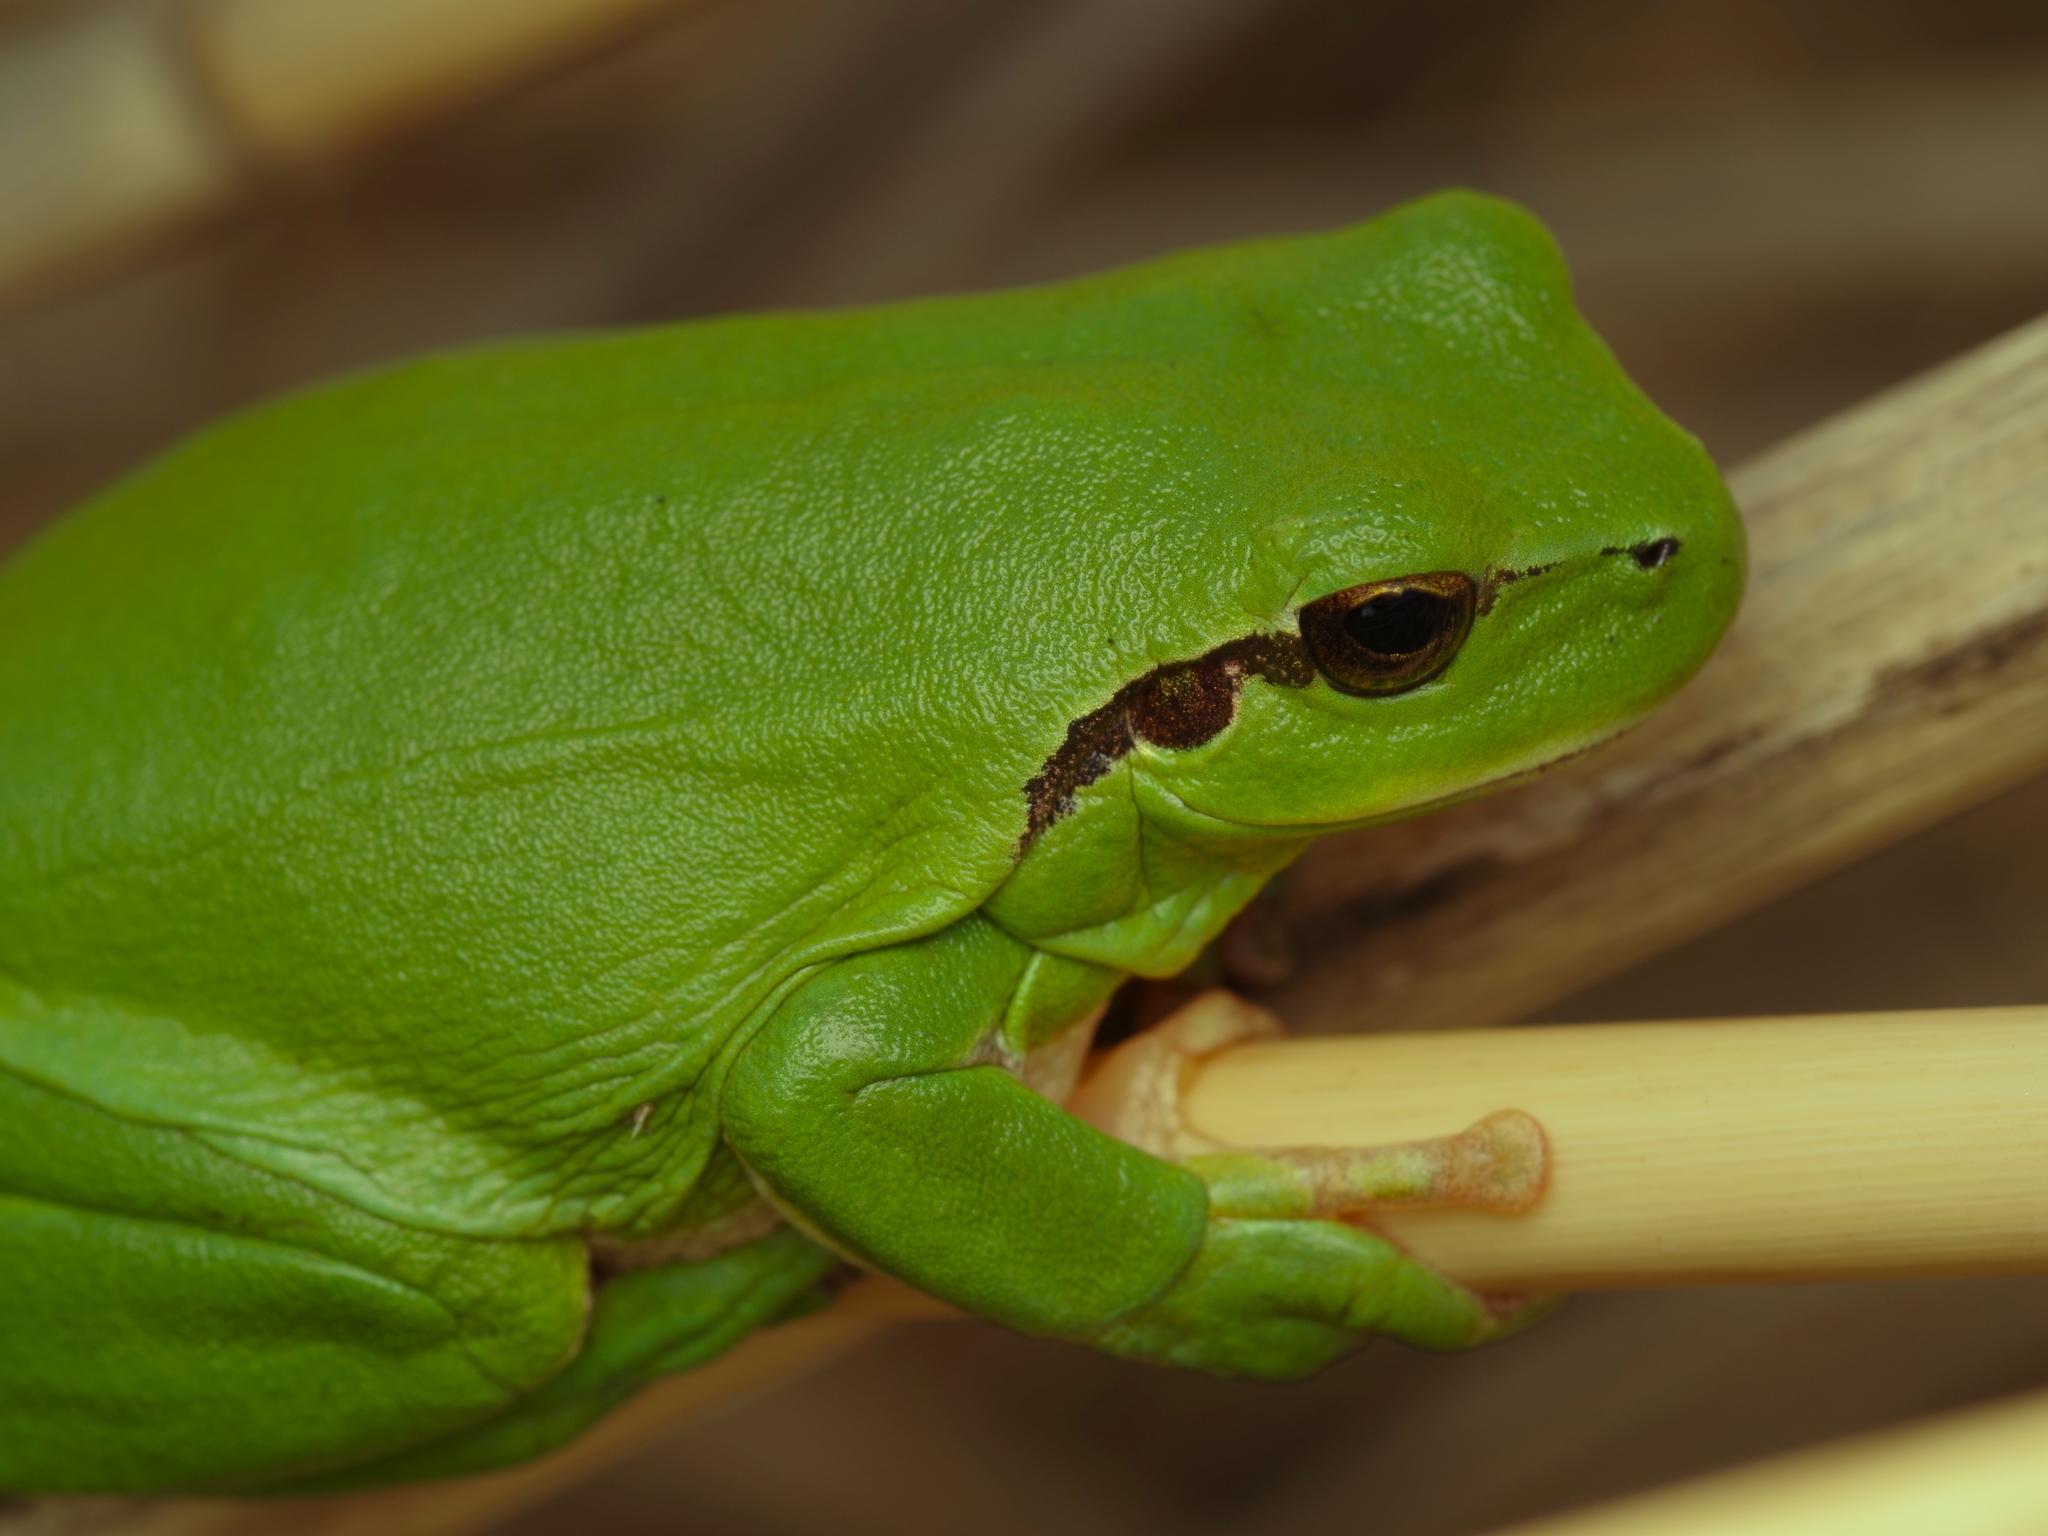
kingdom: Animalia
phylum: Chordata
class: Amphibia
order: Anura
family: Hylidae
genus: Hyla
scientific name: Hyla meridionalis
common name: Stripeless tree frog
